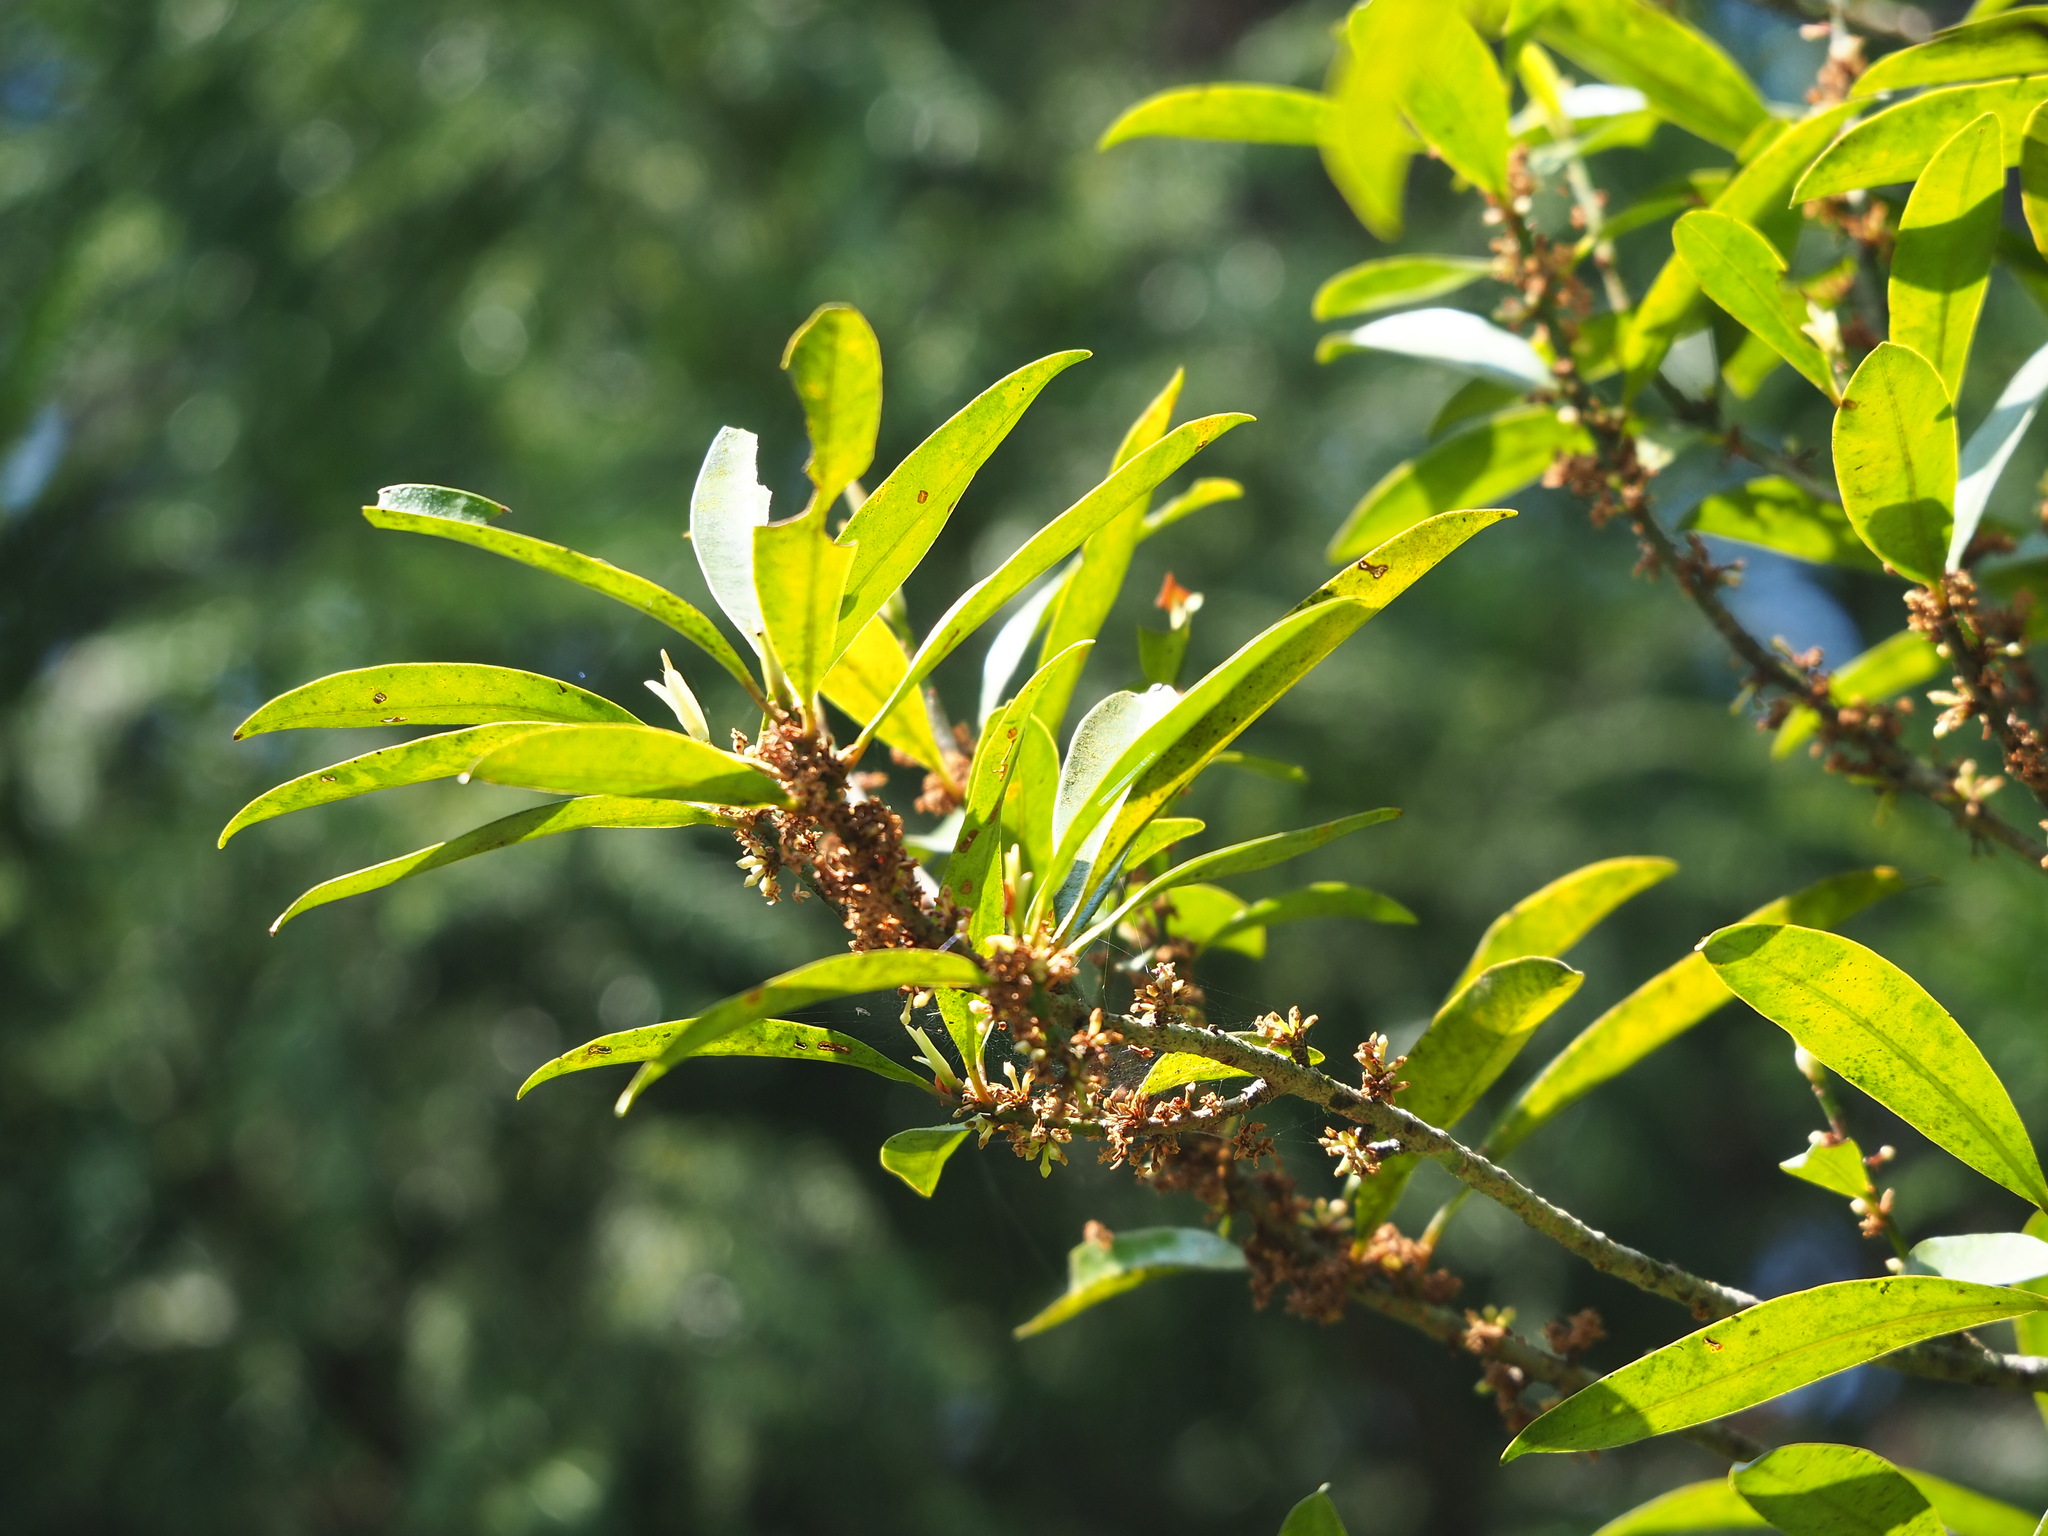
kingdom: Plantae
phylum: Tracheophyta
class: Magnoliopsida
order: Ericales
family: Primulaceae
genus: Myrsine
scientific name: Myrsine seguinii
